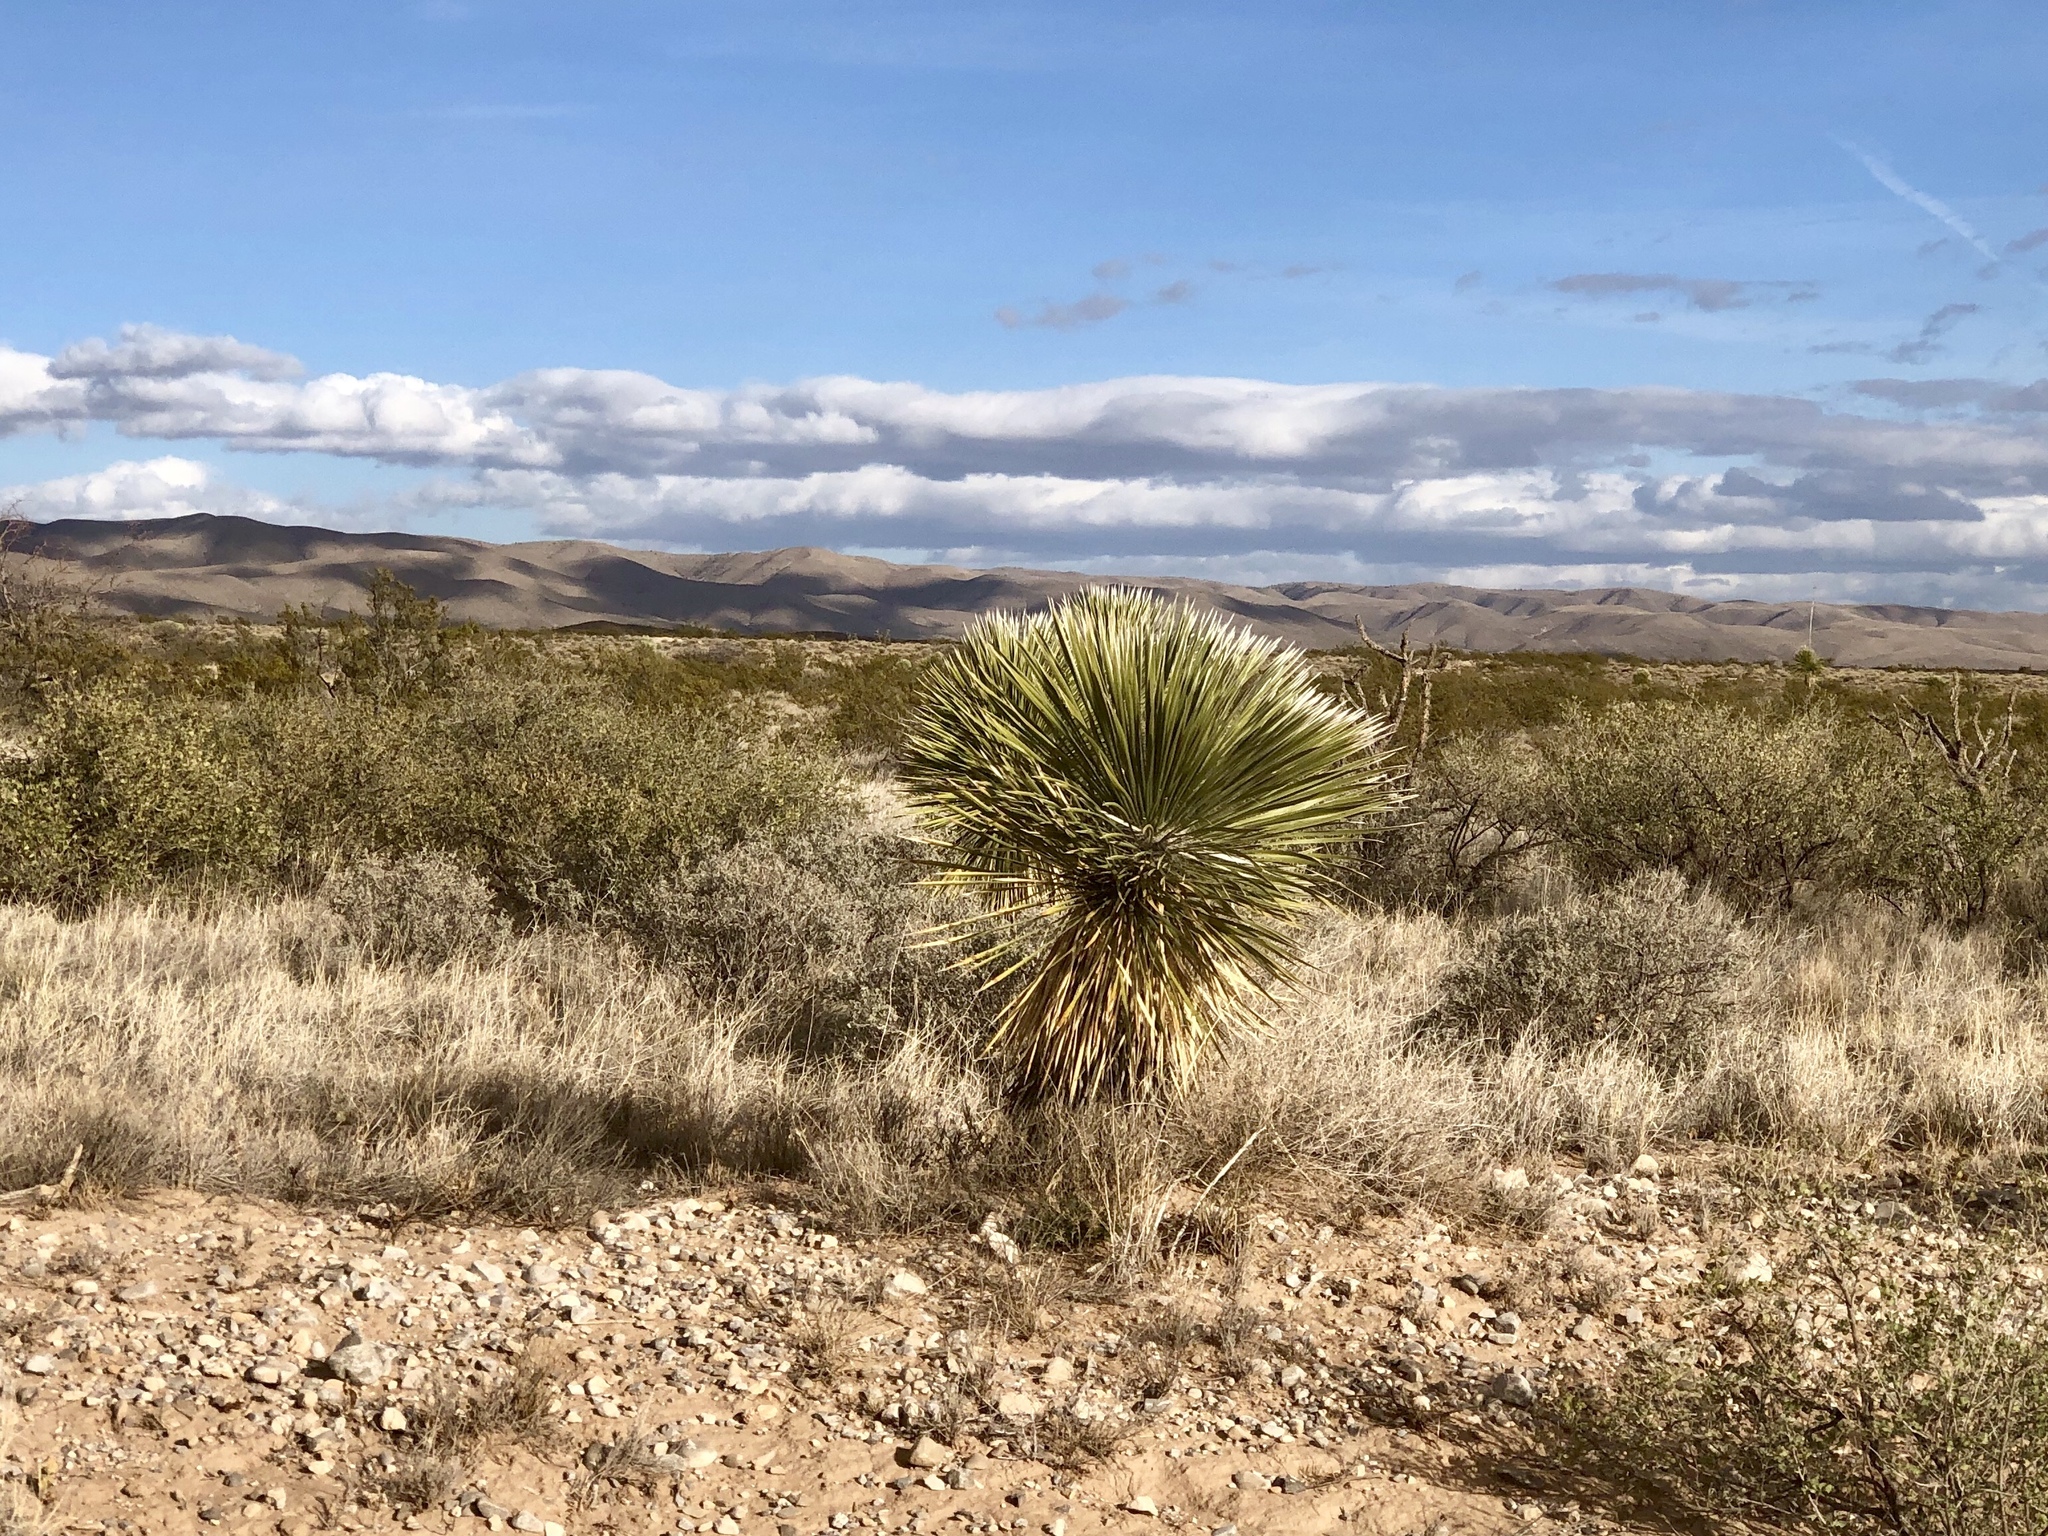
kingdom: Plantae
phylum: Tracheophyta
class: Liliopsida
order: Asparagales
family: Asparagaceae
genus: Yucca
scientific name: Yucca elata
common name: Palmella
